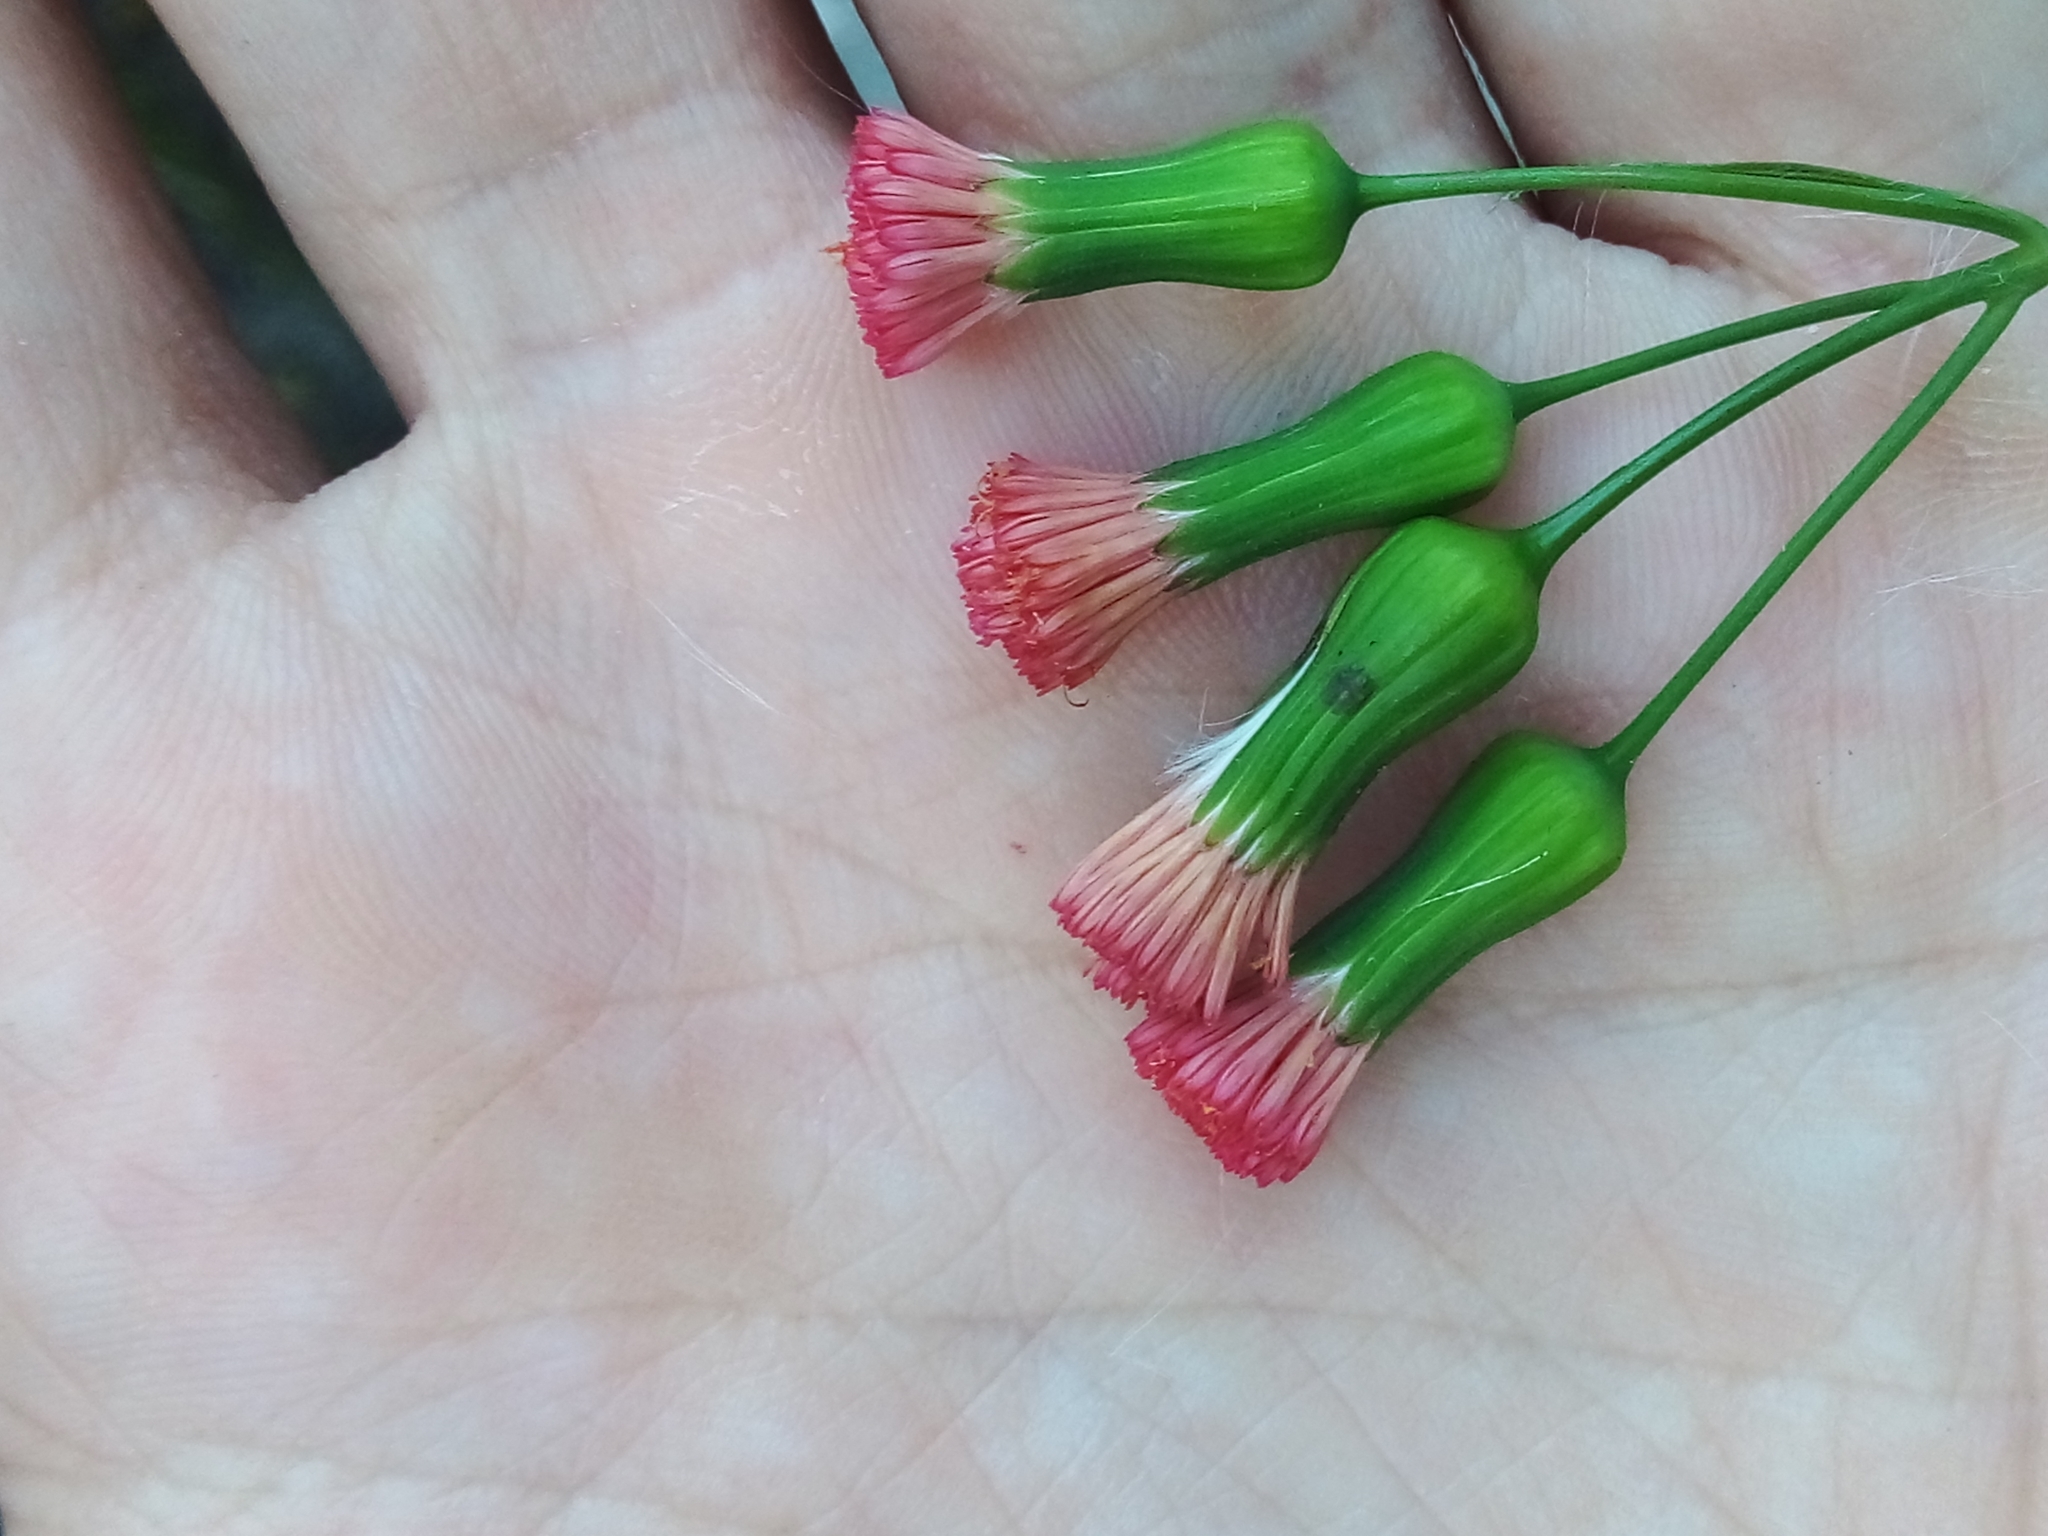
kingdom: Plantae
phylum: Tracheophyta
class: Magnoliopsida
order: Asterales
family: Asteraceae
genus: Emilia
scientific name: Emilia fosbergii
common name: Florida tasselflower
